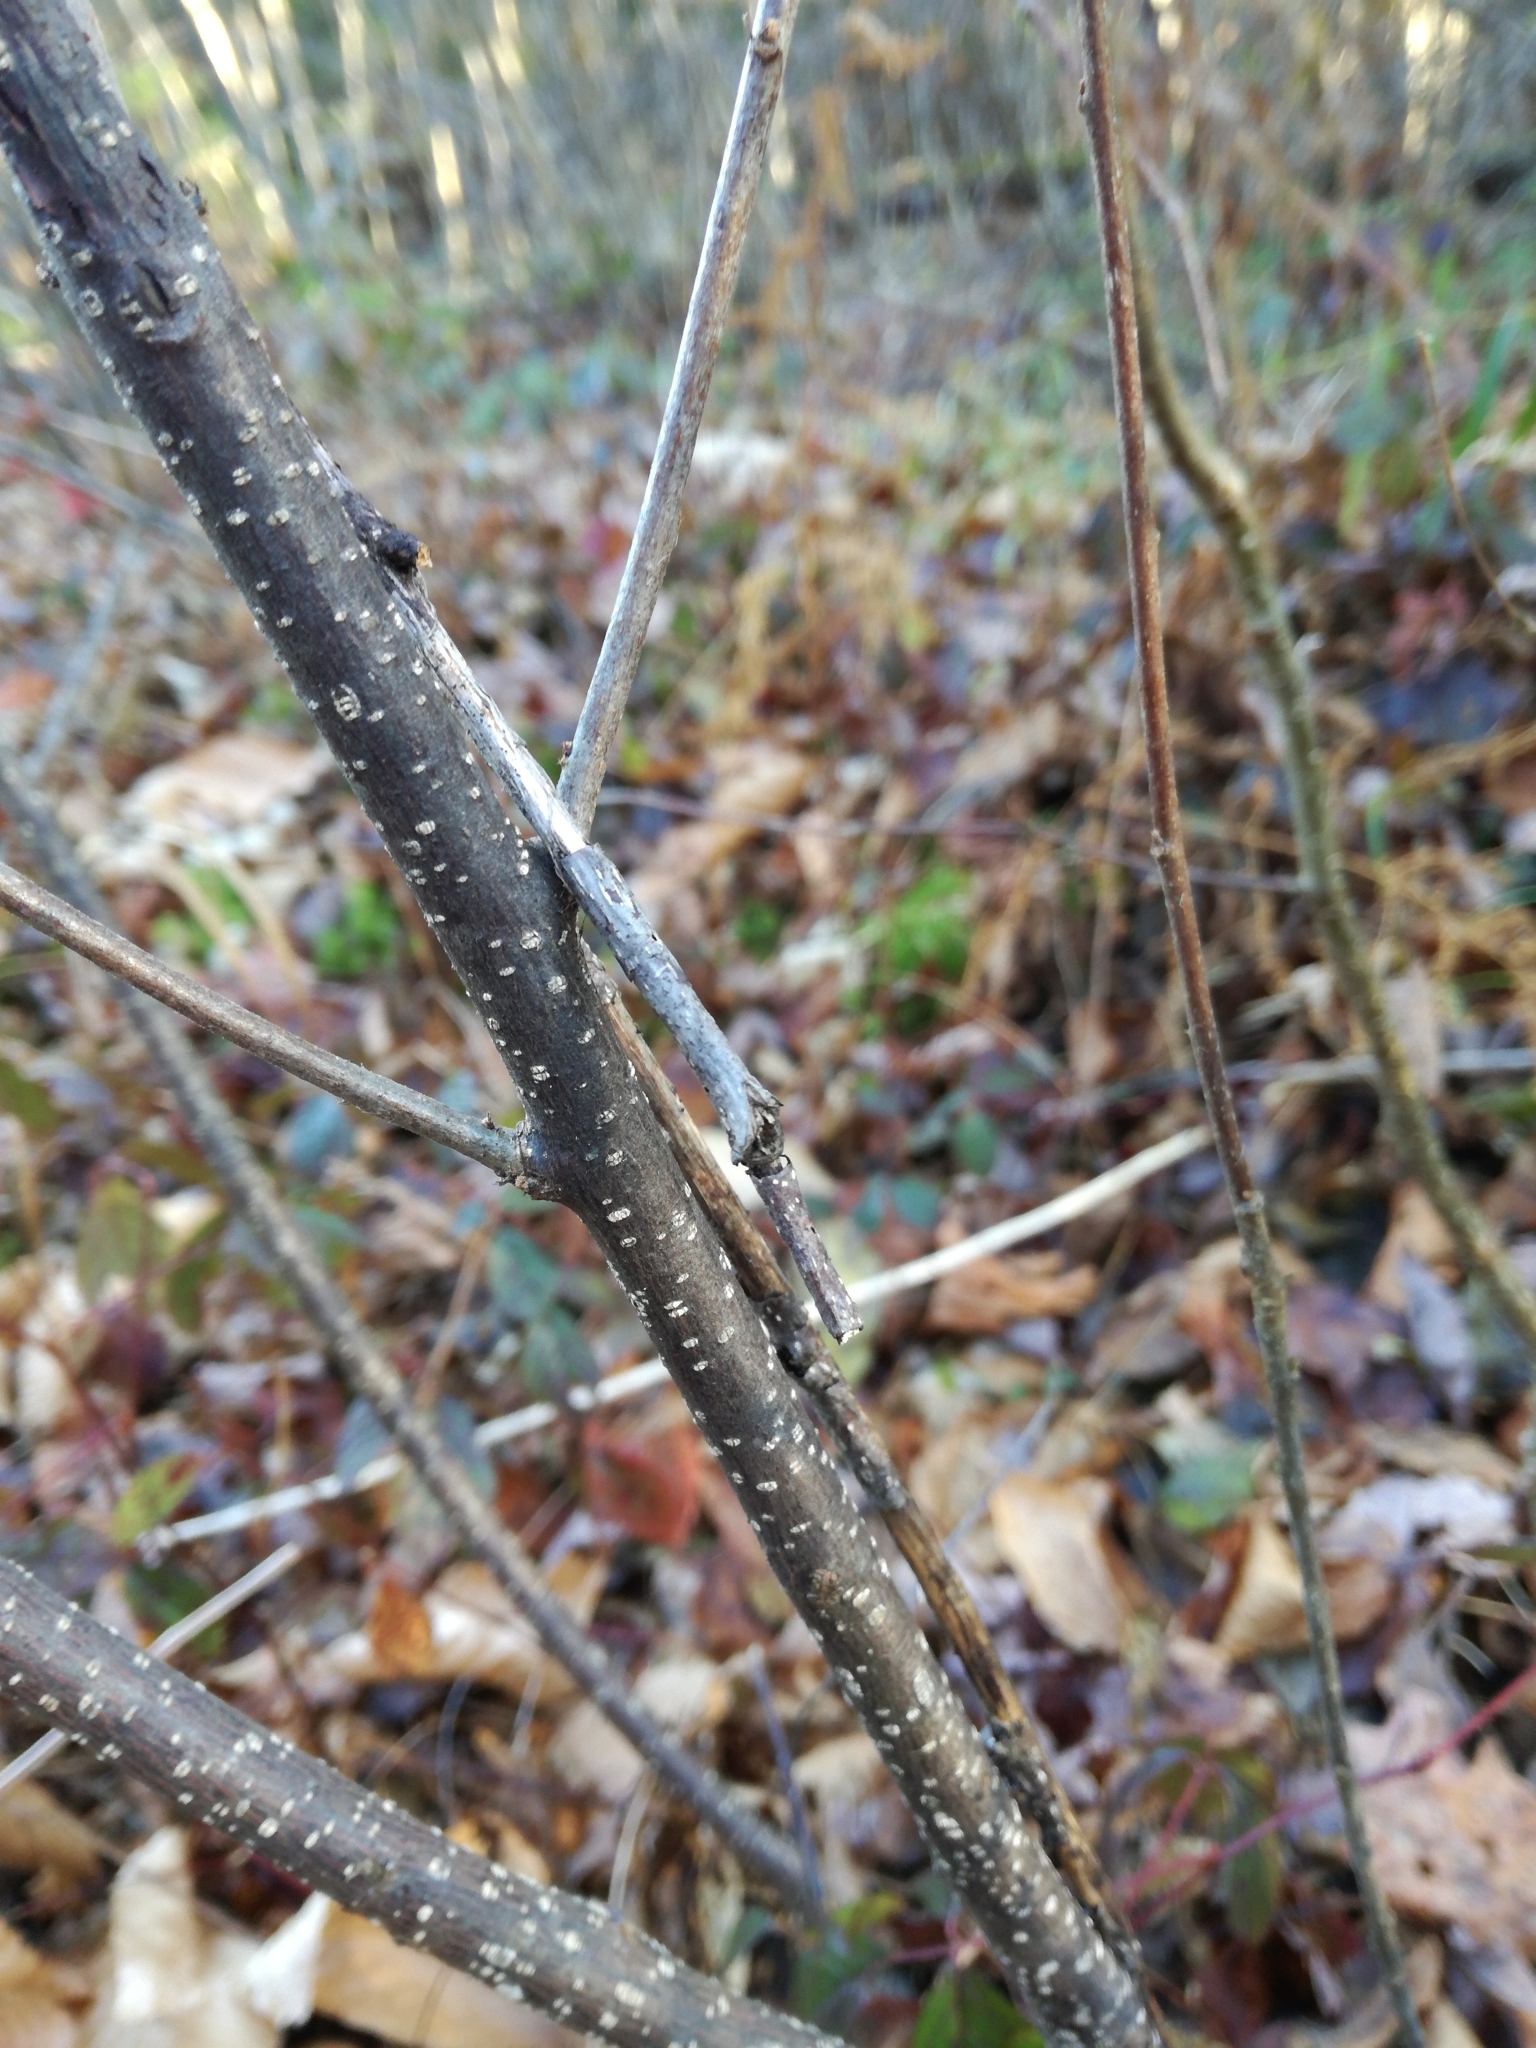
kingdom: Plantae
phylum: Tracheophyta
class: Magnoliopsida
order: Rosales
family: Rhamnaceae
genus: Frangula
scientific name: Frangula alnus
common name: Alder buckthorn
